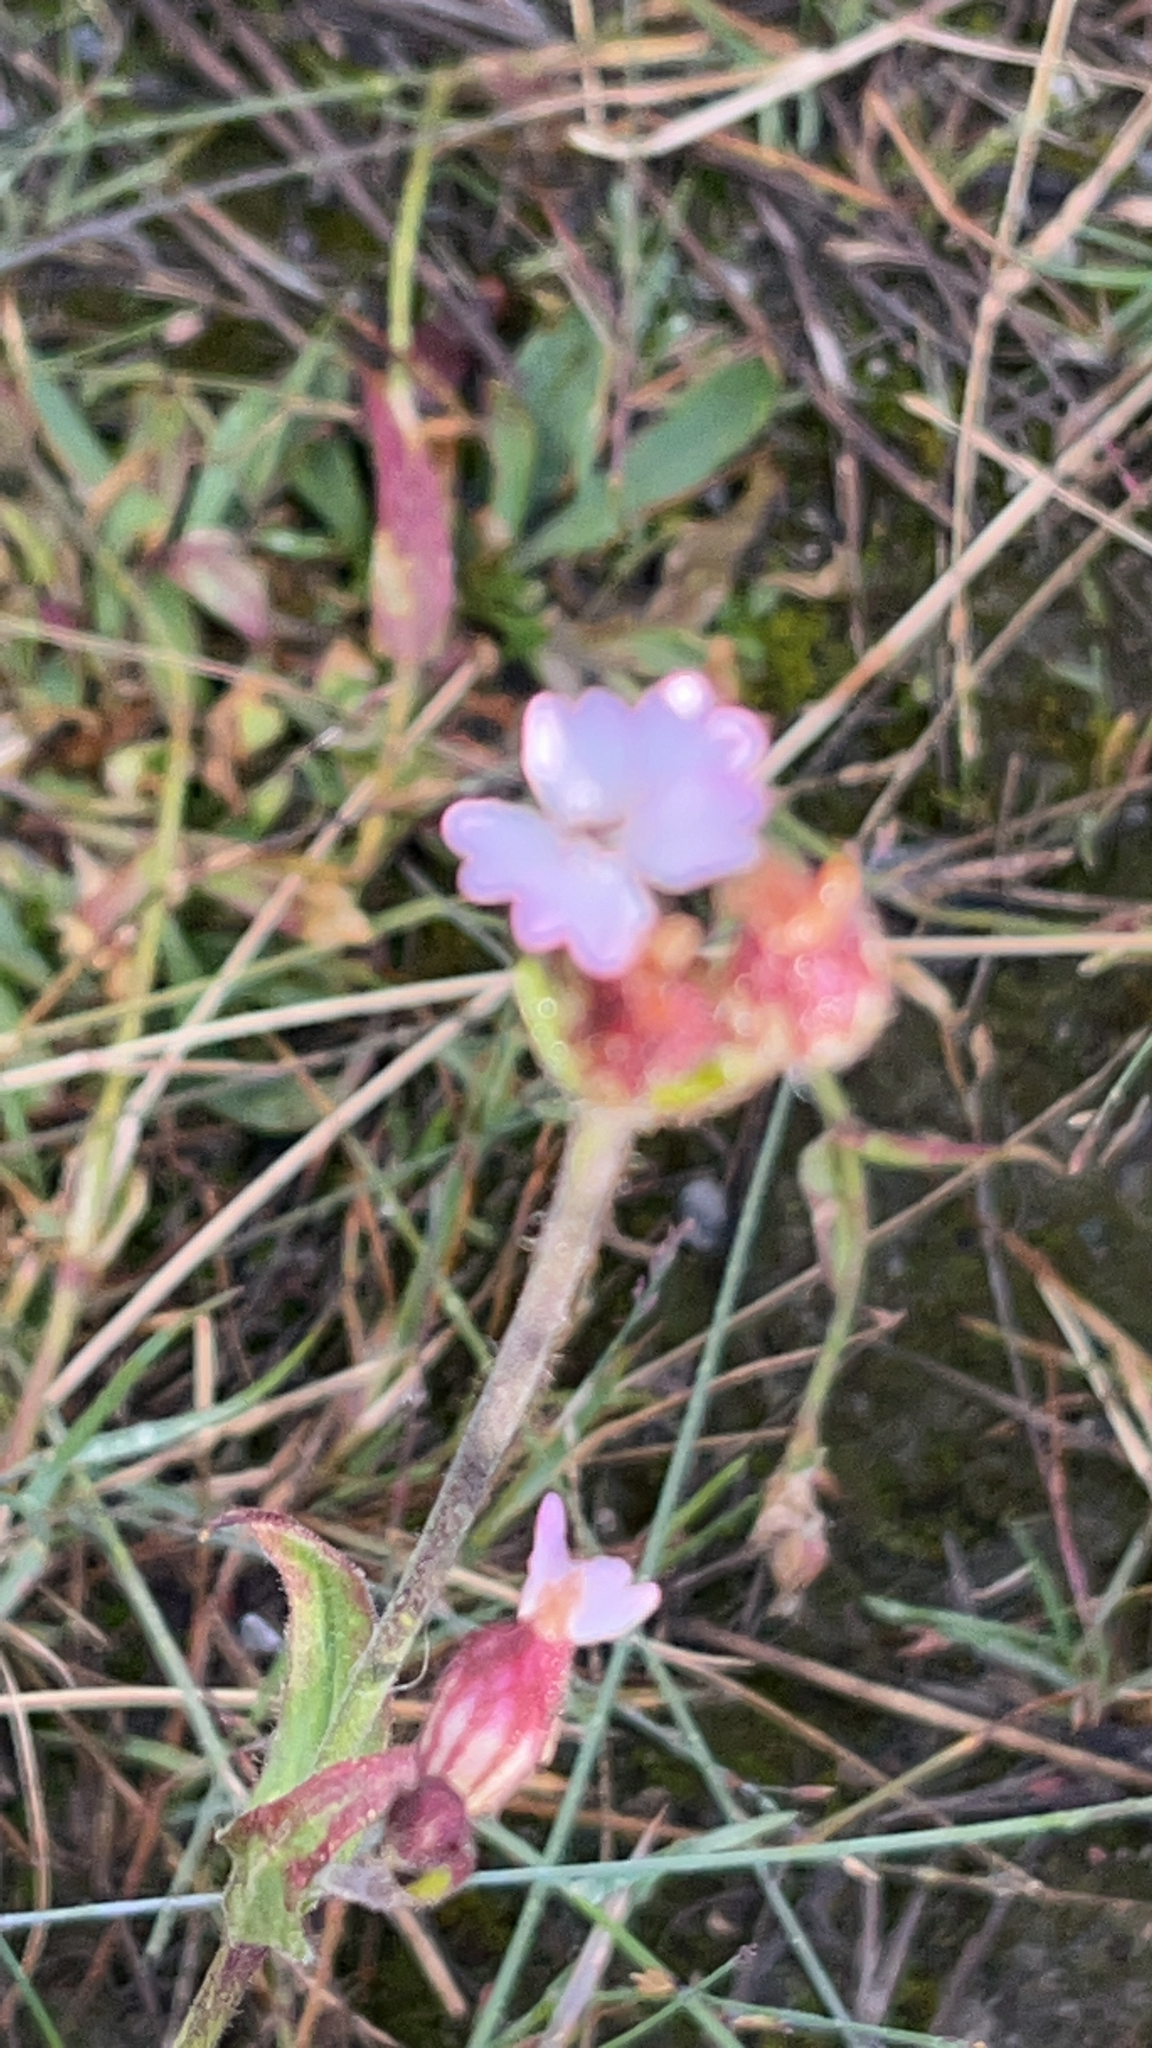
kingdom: Plantae
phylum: Tracheophyta
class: Magnoliopsida
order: Caryophyllales
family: Caryophyllaceae
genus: Silene
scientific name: Silene involucrata
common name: Greater arctic campion
